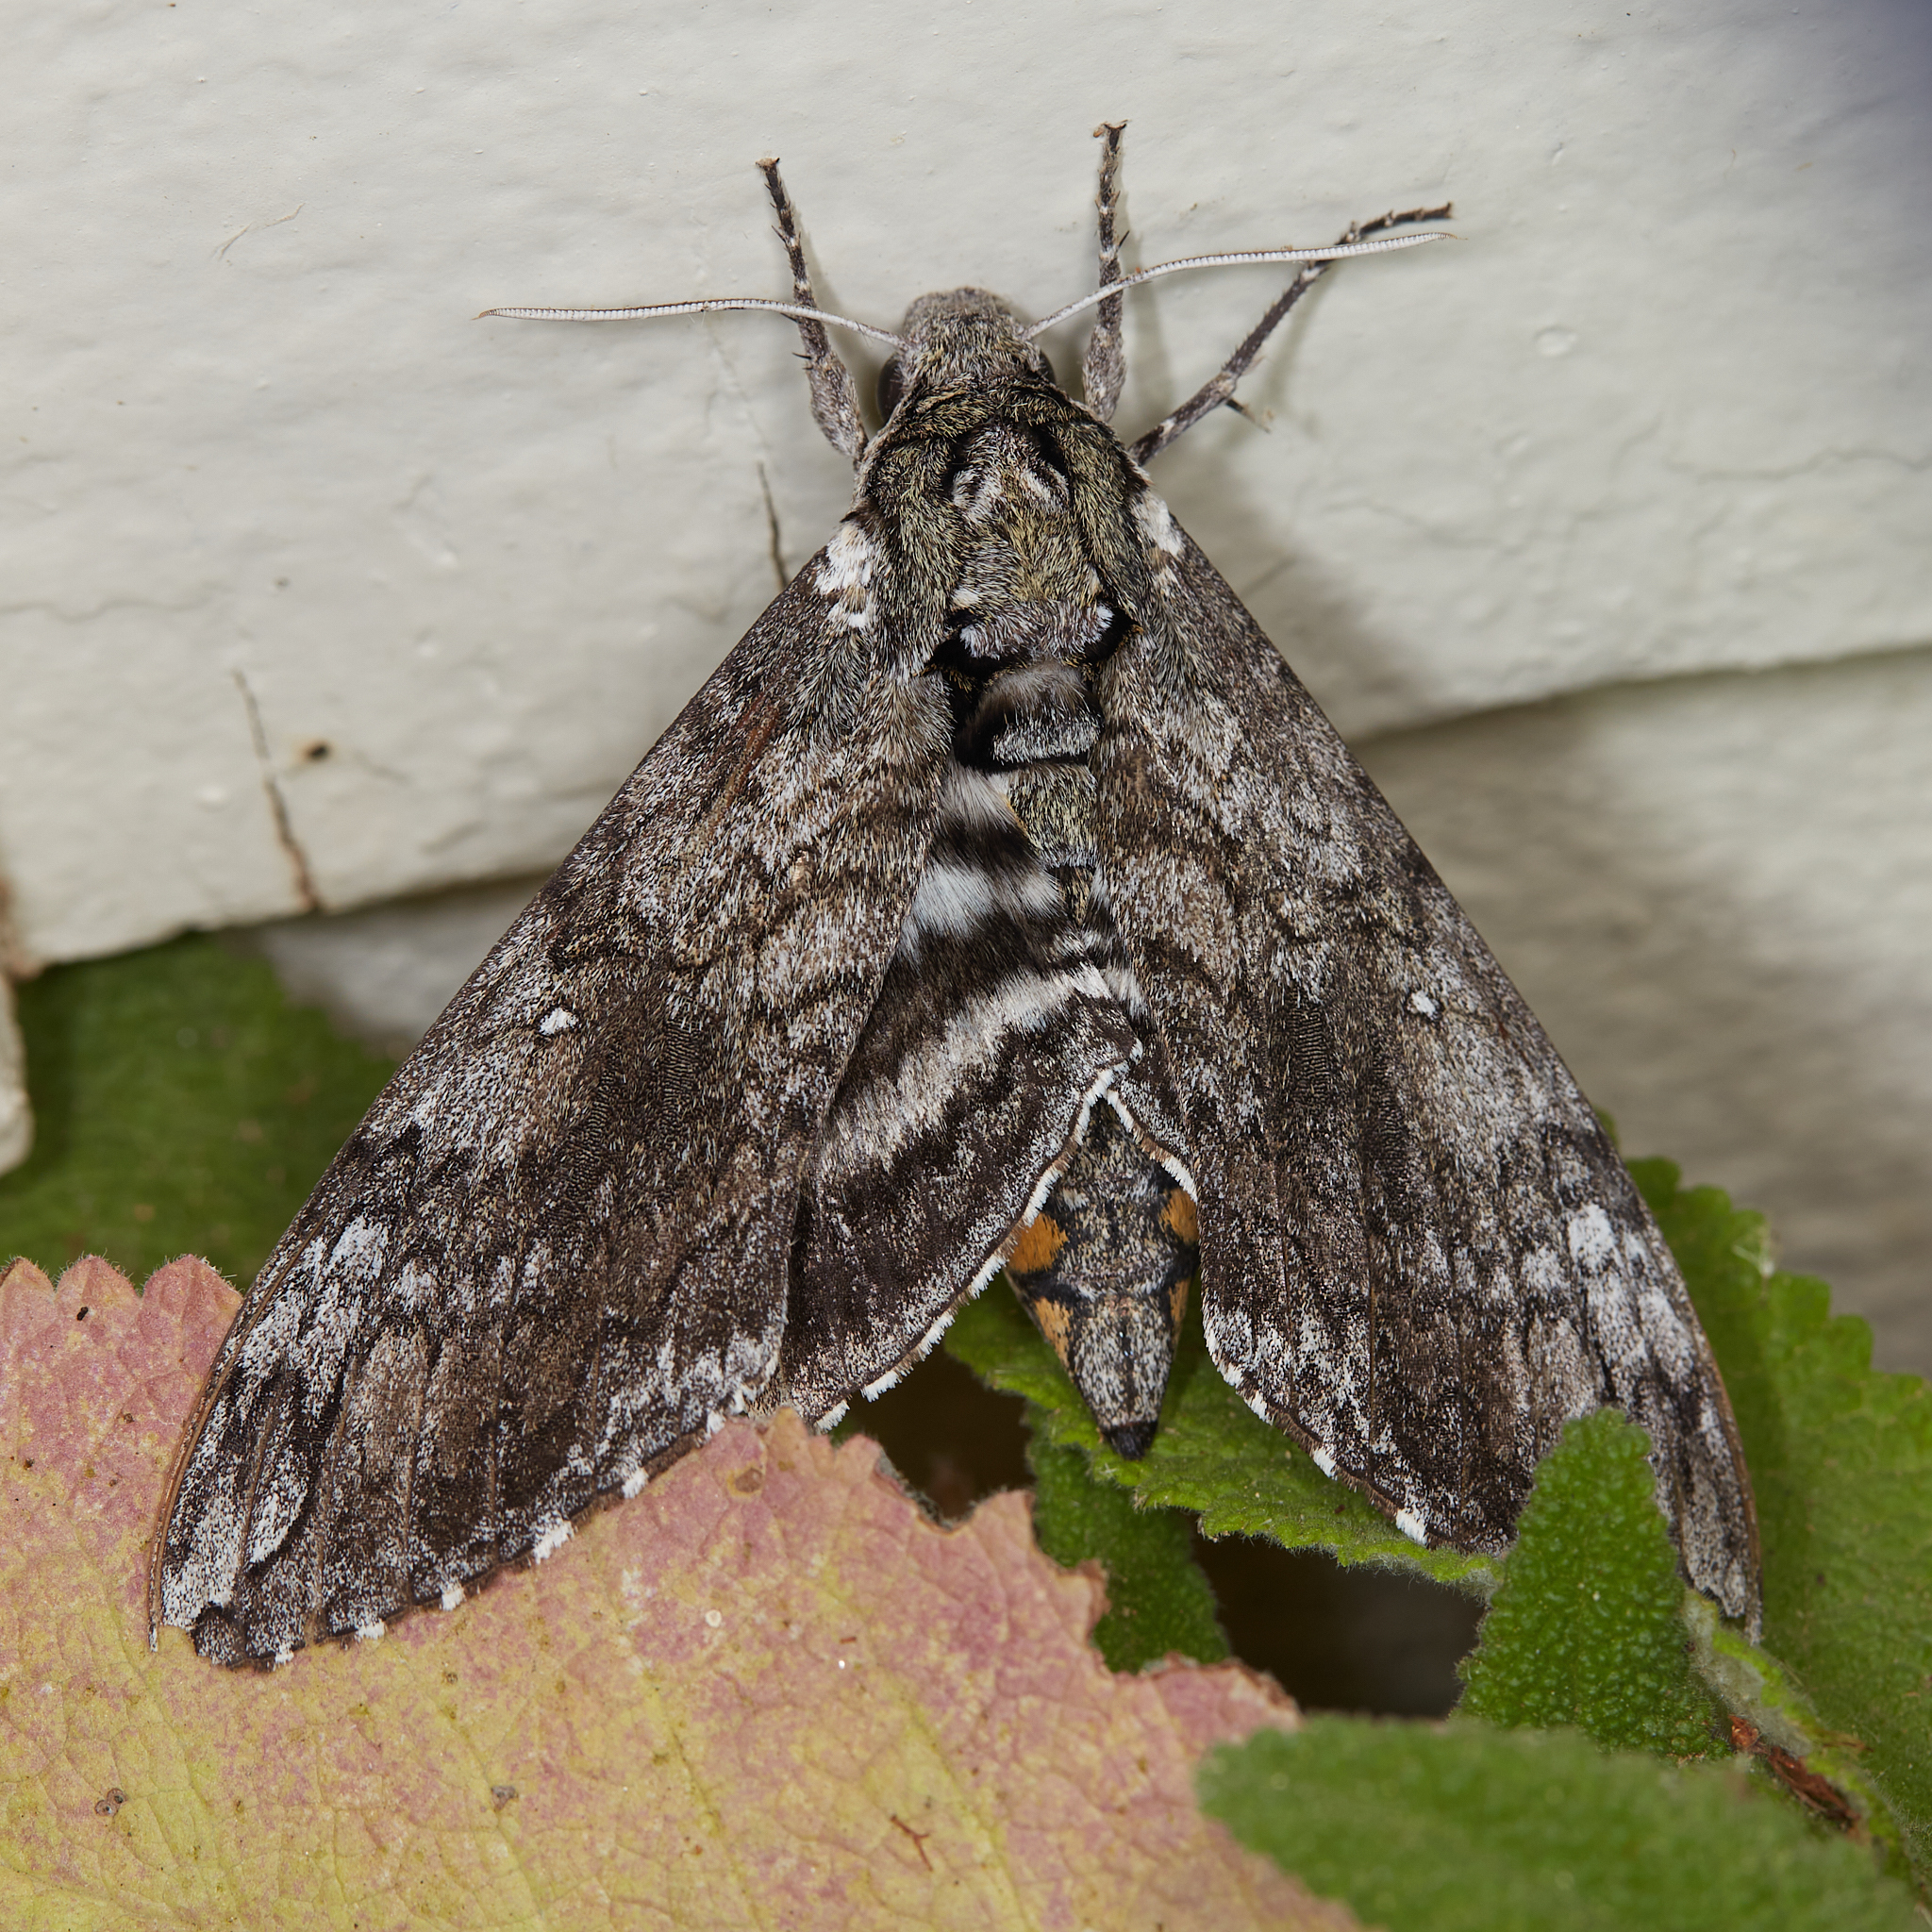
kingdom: Animalia
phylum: Arthropoda
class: Insecta
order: Lepidoptera
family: Sphingidae
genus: Manduca
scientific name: Manduca sexta
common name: Carolina sphinx
